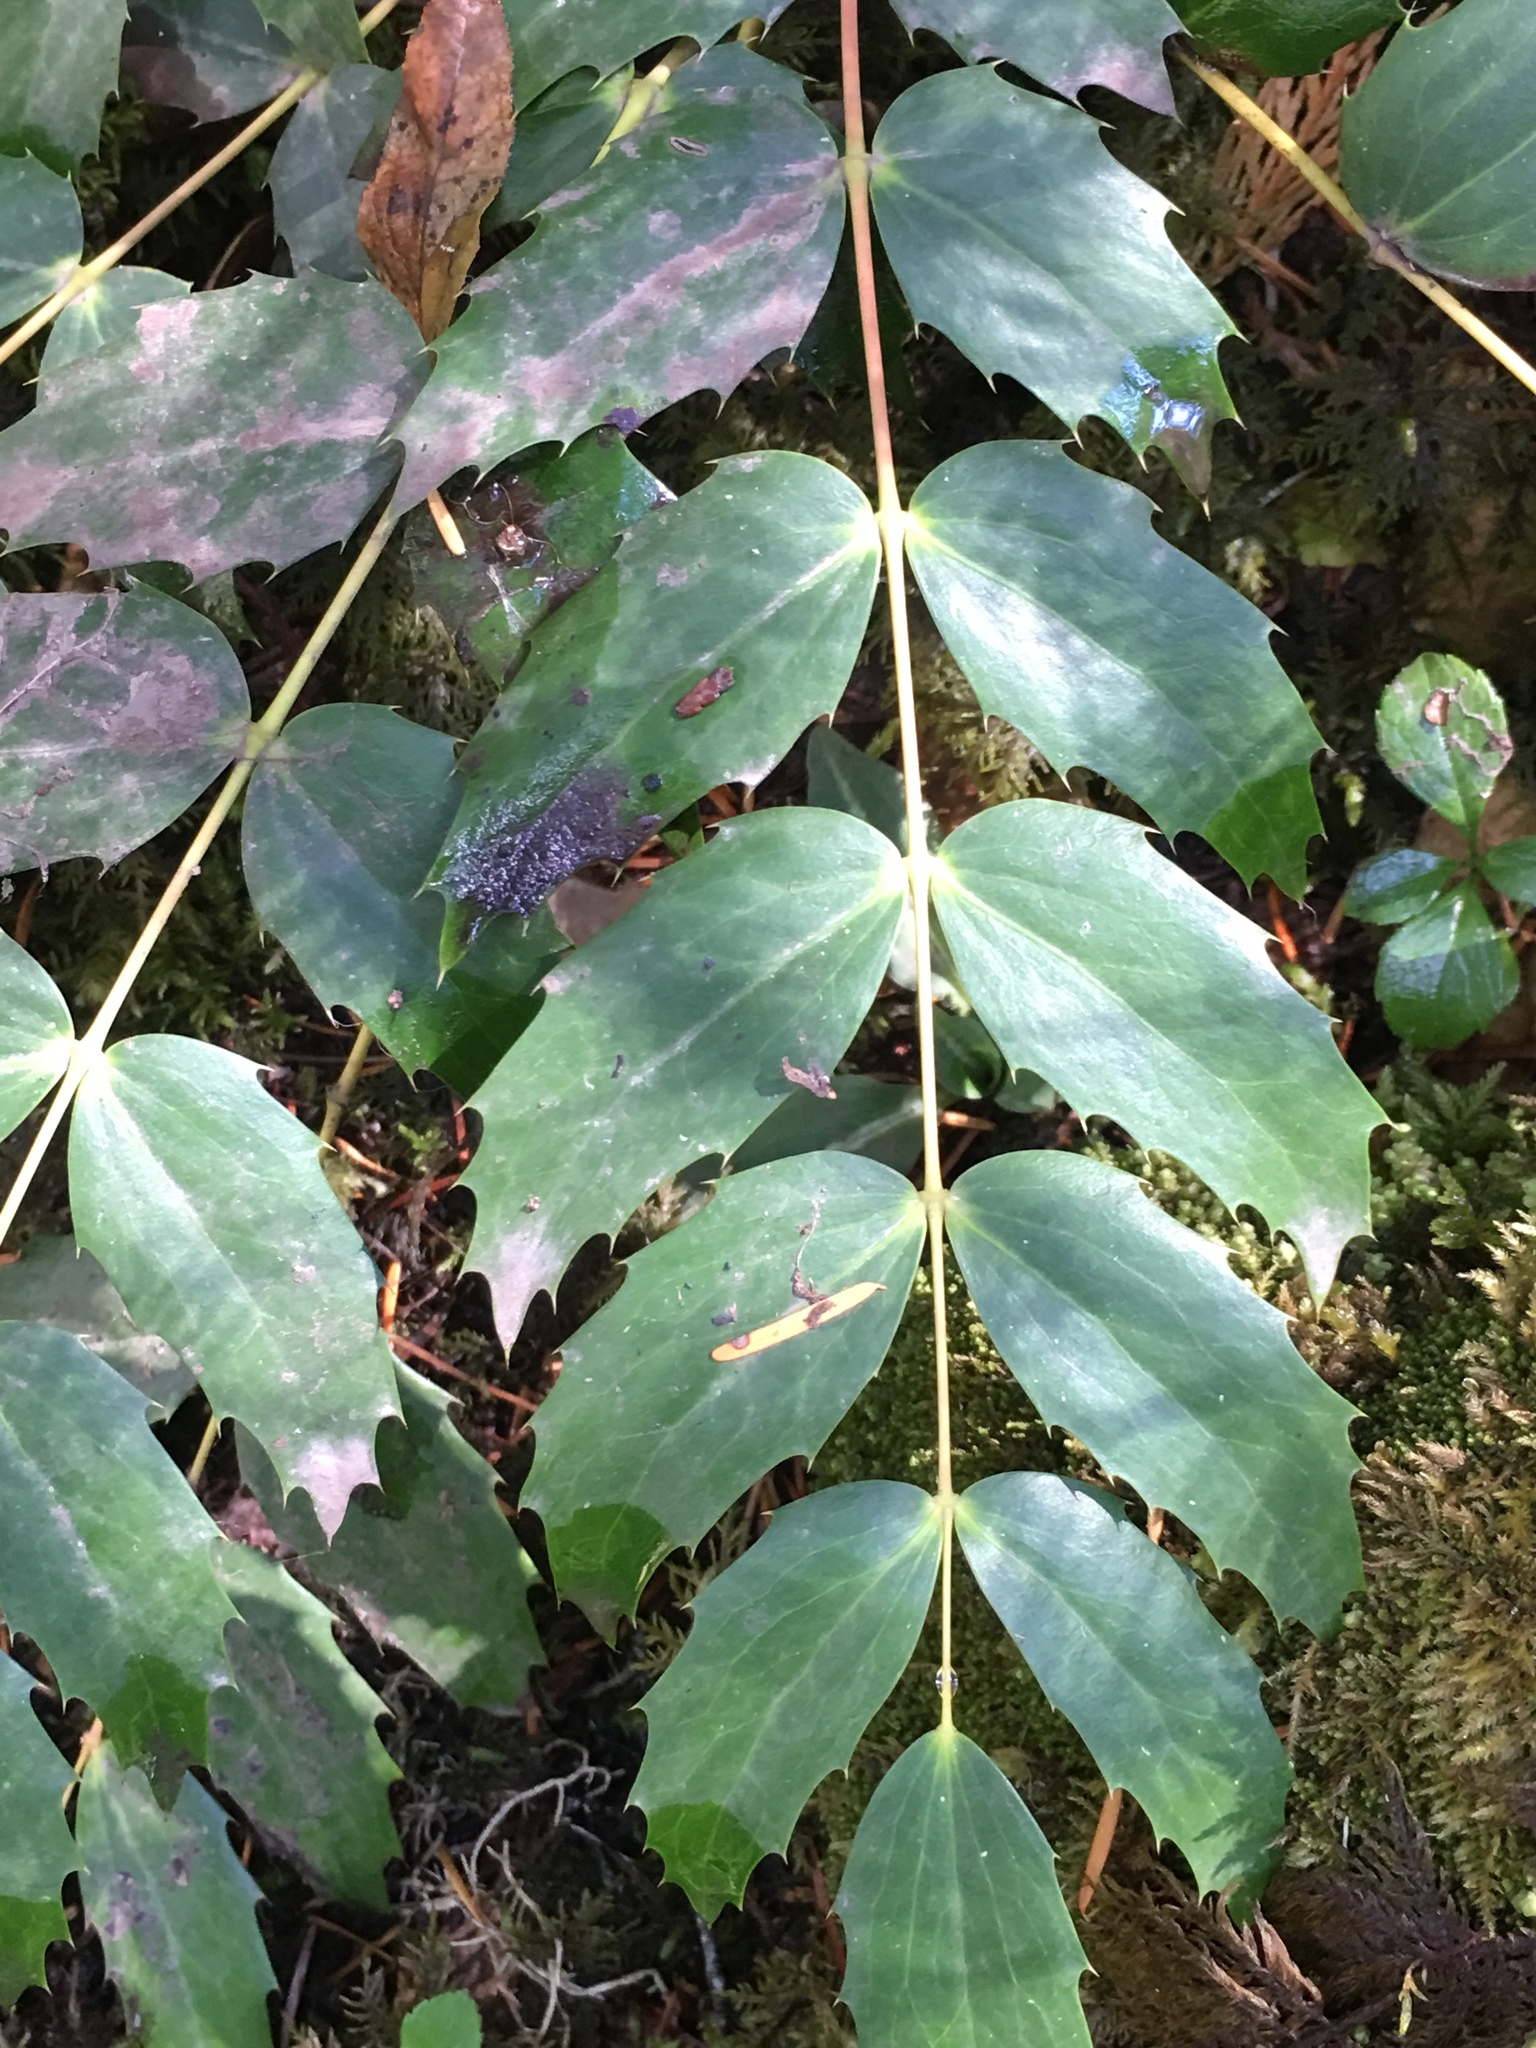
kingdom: Plantae
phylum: Tracheophyta
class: Magnoliopsida
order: Ranunculales
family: Berberidaceae
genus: Mahonia
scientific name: Mahonia nervosa
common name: Cascade oregon-grape
